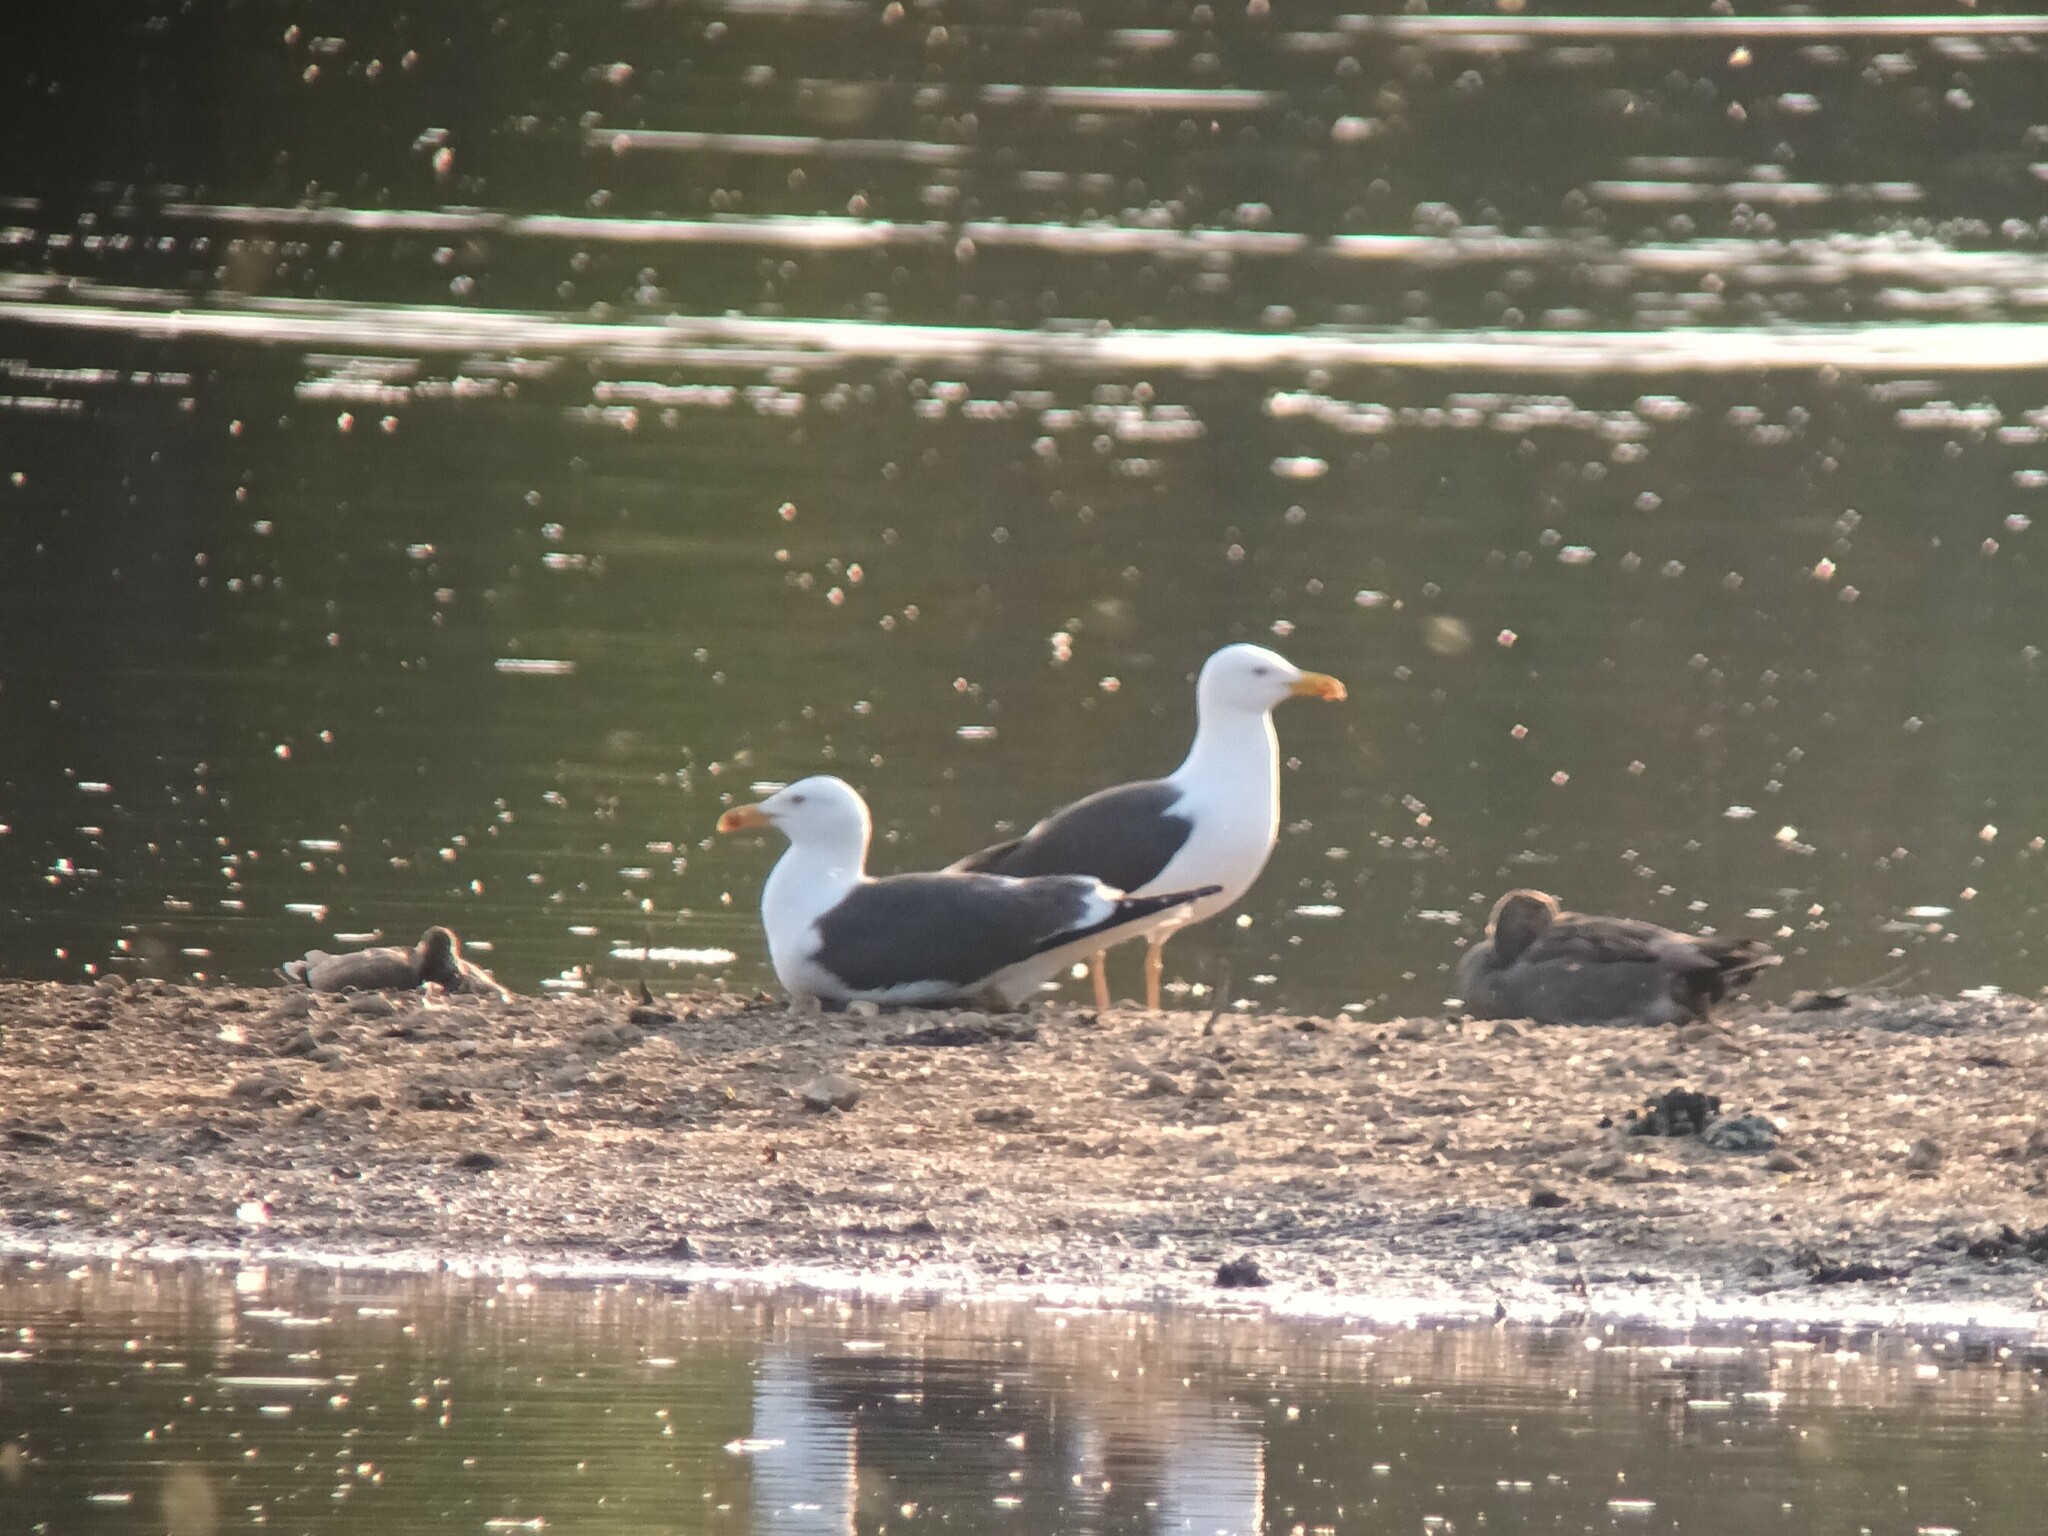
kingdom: Animalia
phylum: Chordata
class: Aves
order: Charadriiformes
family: Laridae
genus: Larus
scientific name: Larus fuscus
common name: Lesser black-backed gull
